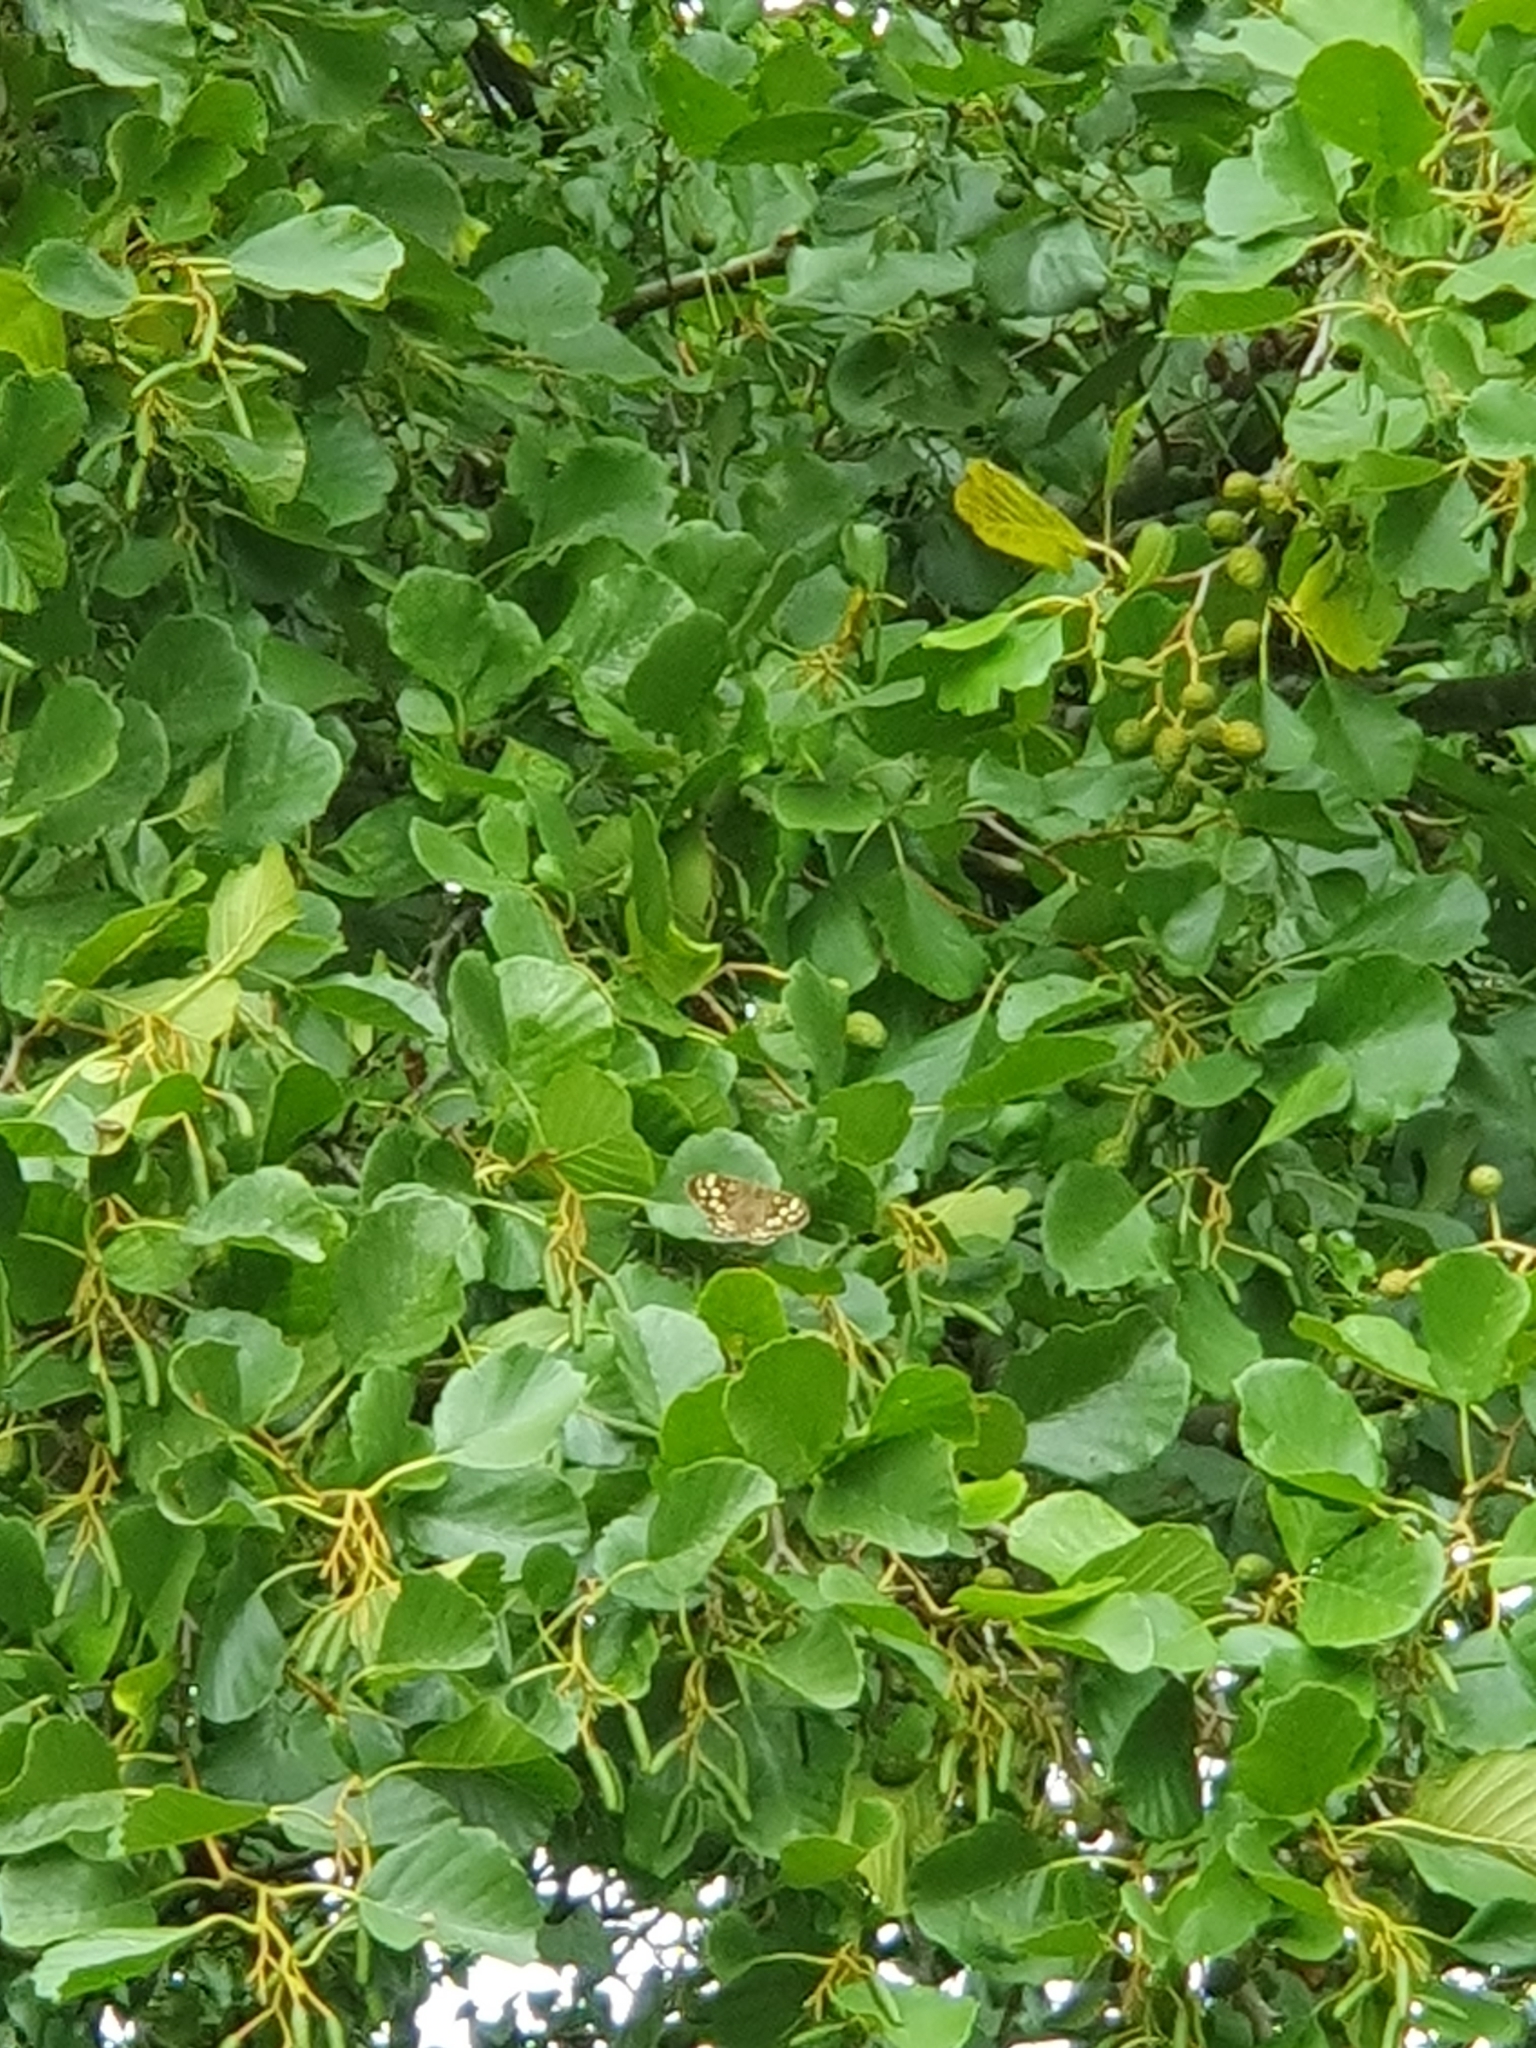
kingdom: Animalia
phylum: Arthropoda
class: Insecta
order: Lepidoptera
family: Nymphalidae
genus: Pararge
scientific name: Pararge aegeria
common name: Speckled wood
